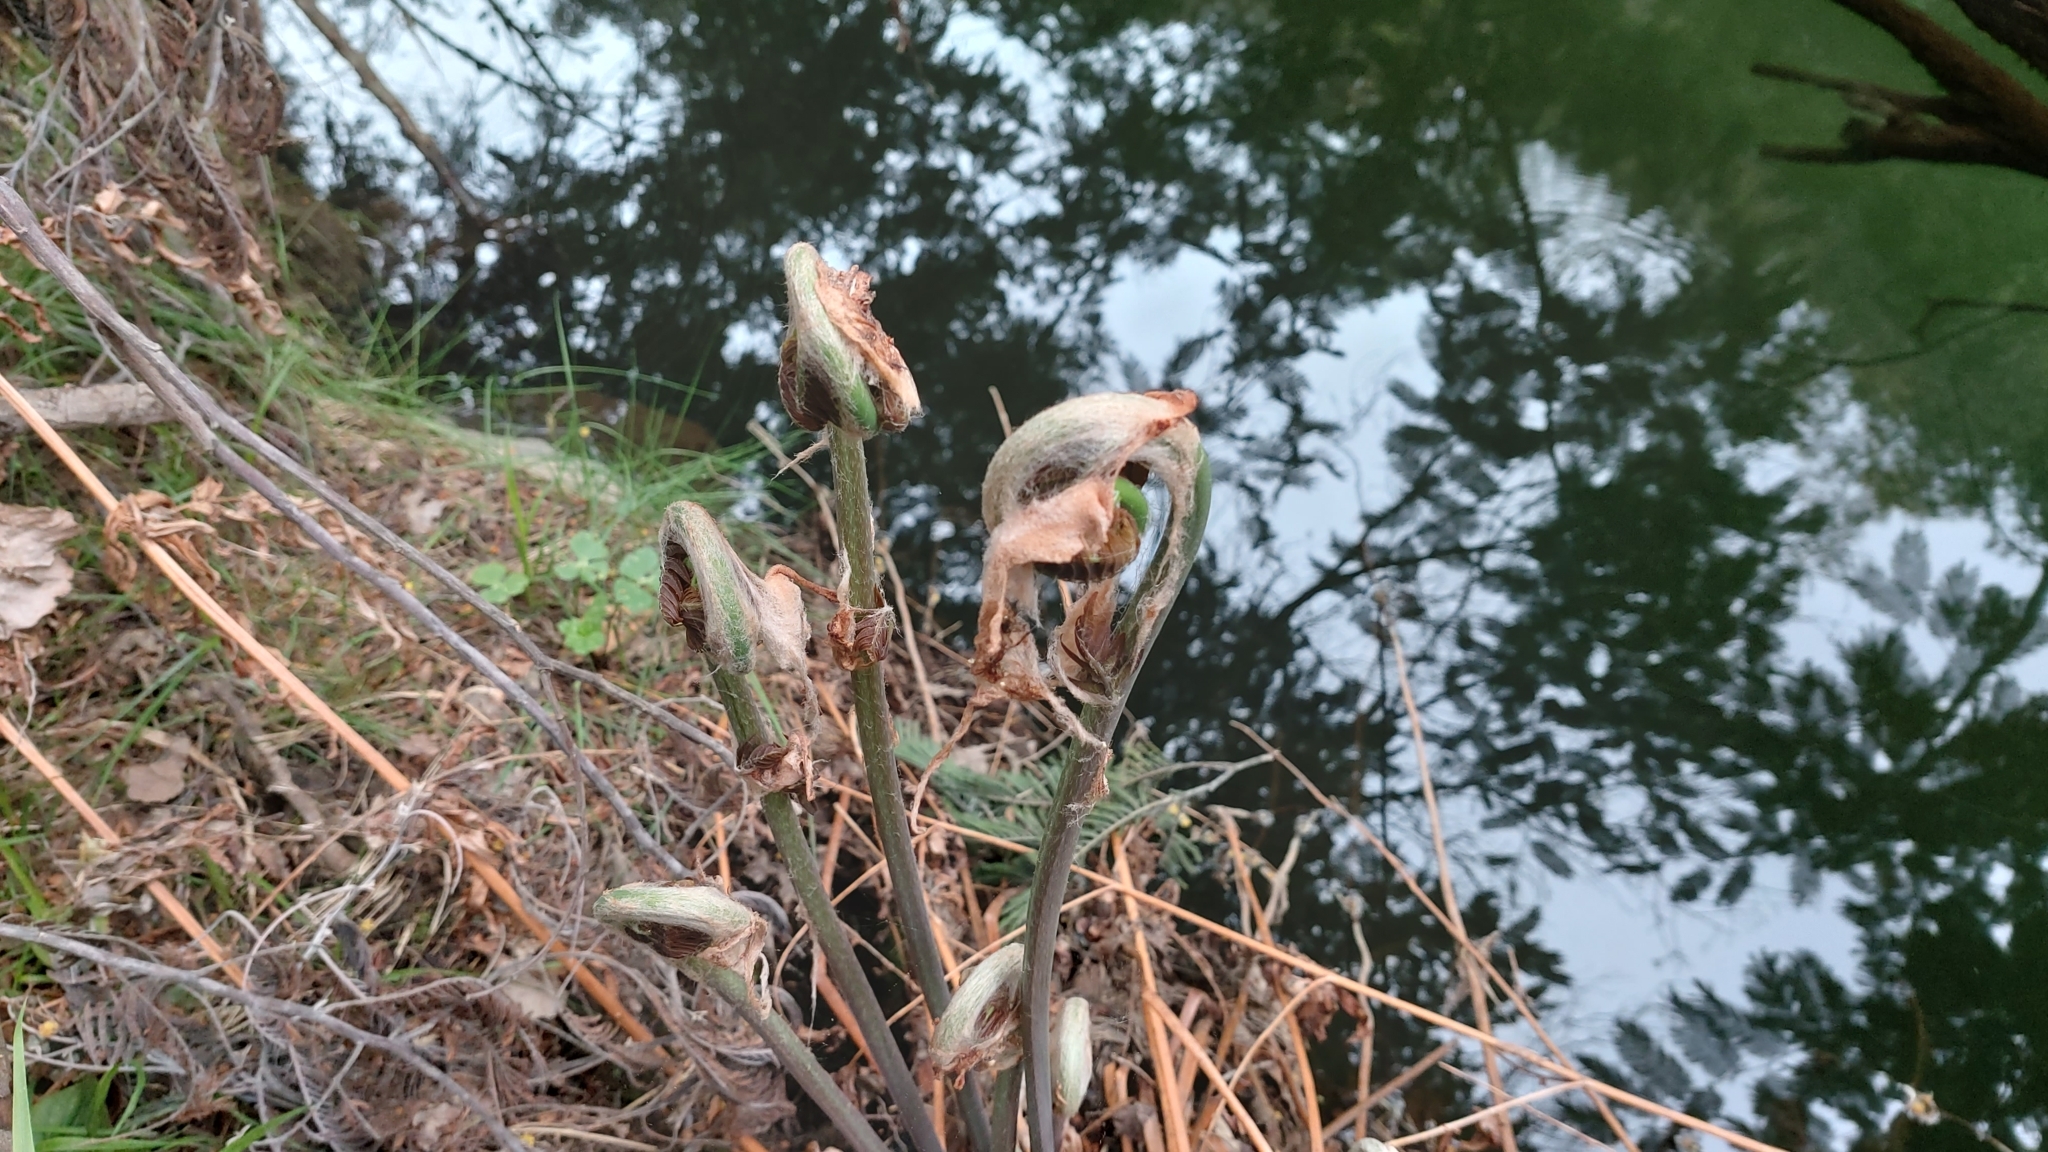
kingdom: Plantae
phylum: Tracheophyta
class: Polypodiopsida
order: Osmundales
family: Osmundaceae
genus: Osmunda
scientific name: Osmunda regalis
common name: Royal fern
